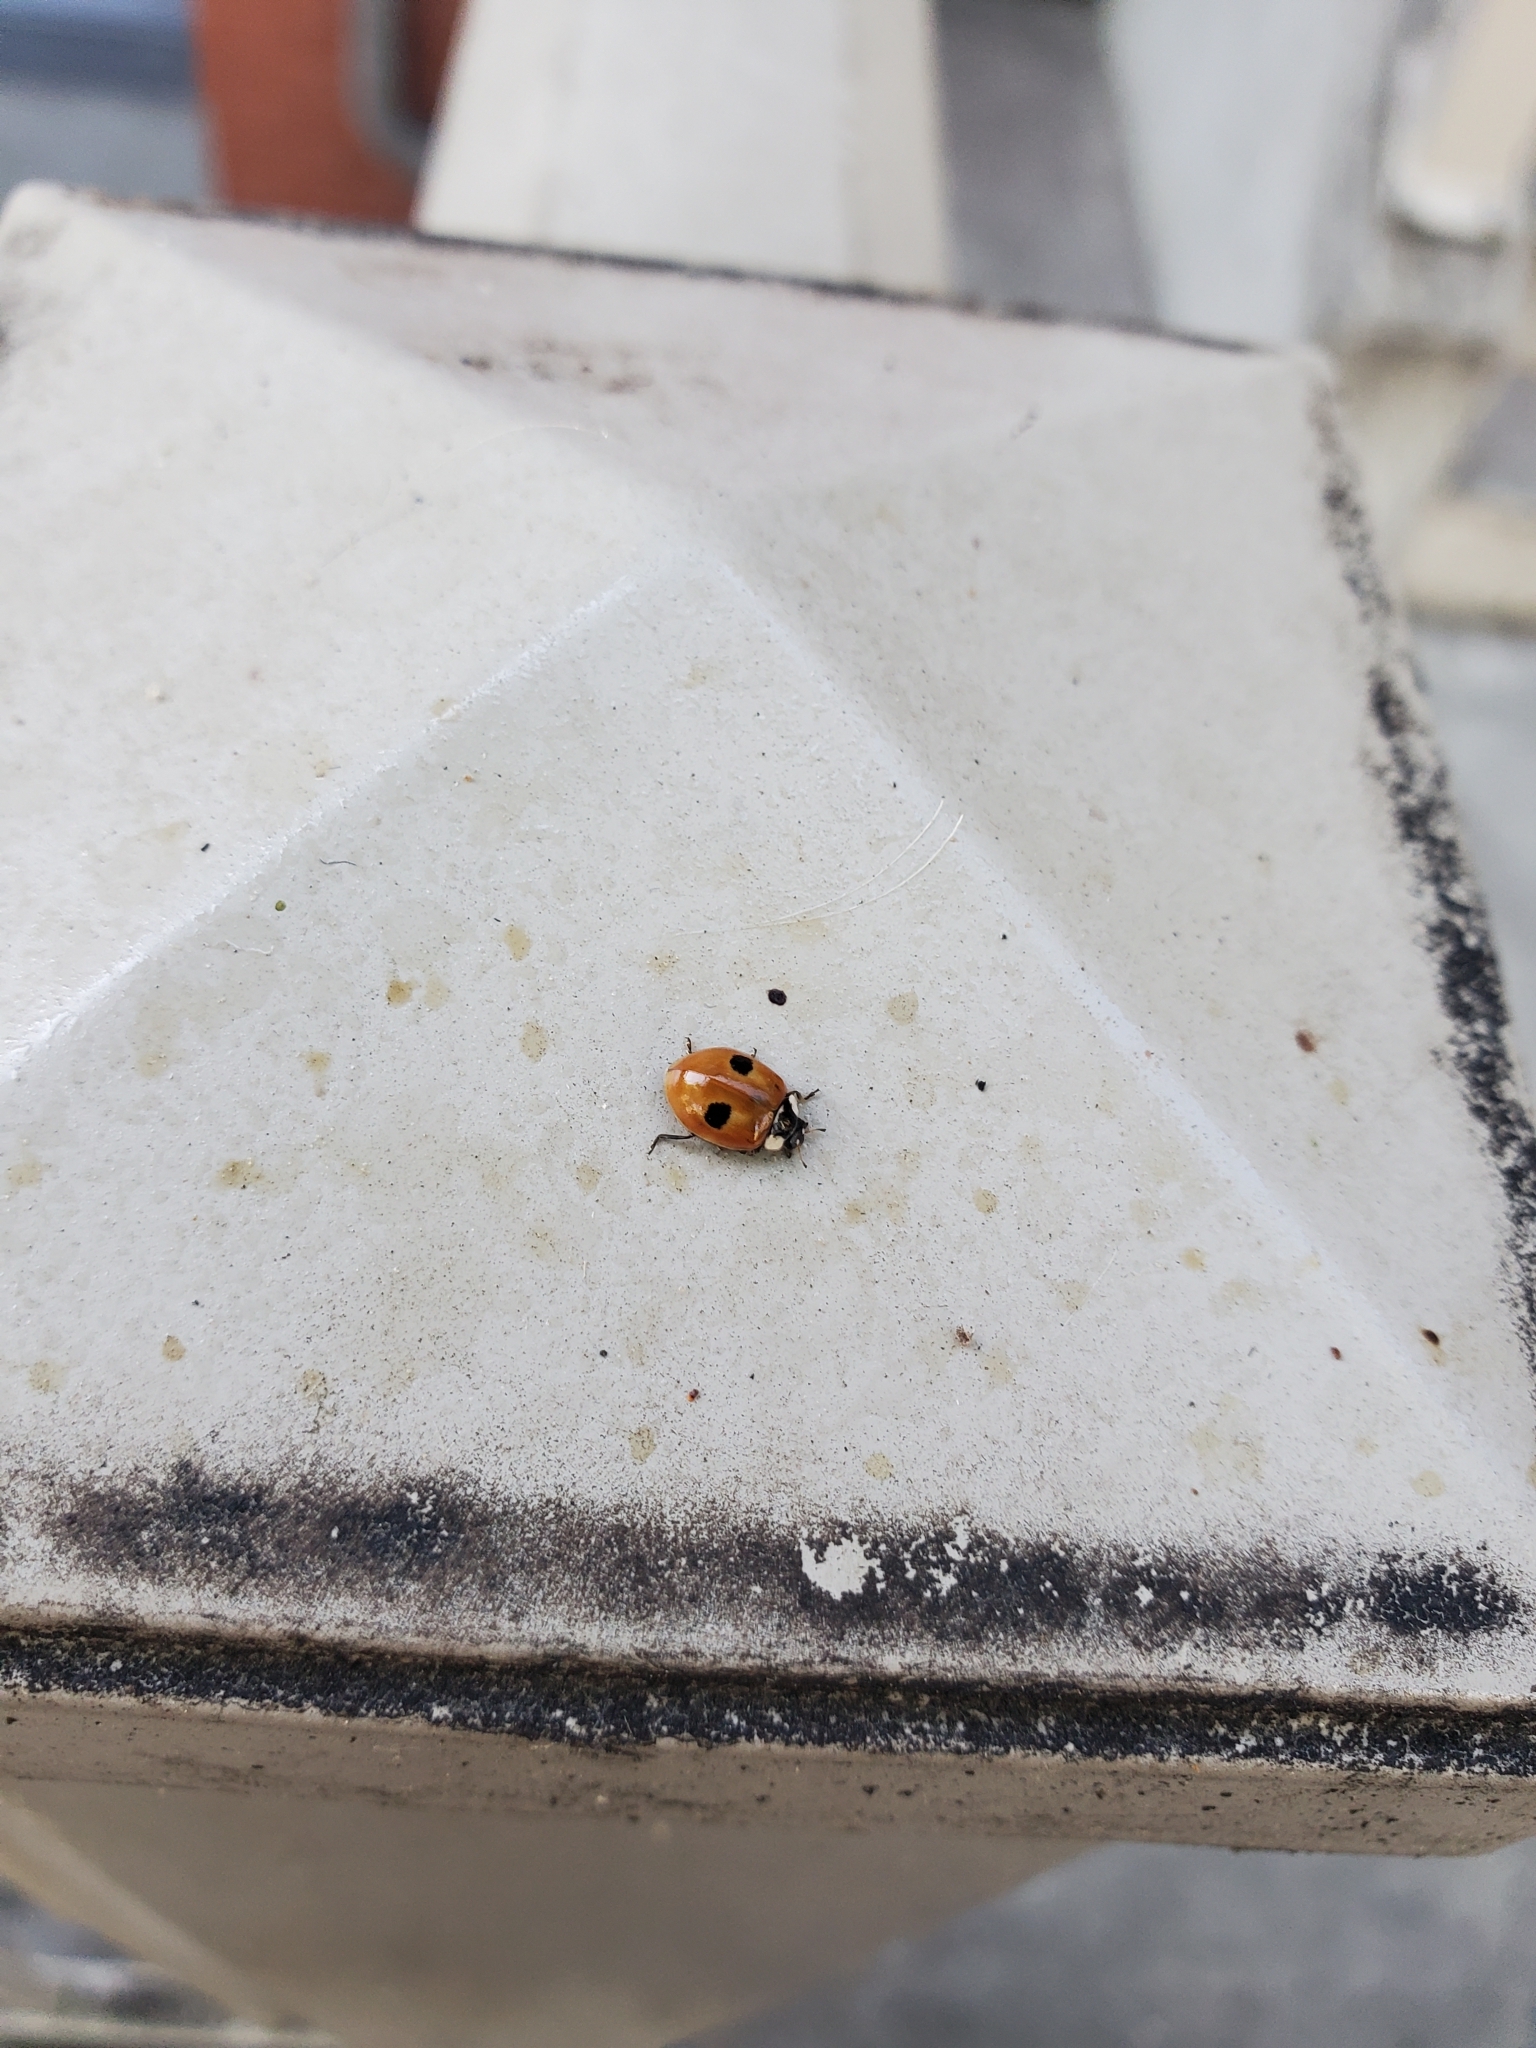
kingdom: Animalia
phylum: Arthropoda
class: Insecta
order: Coleoptera
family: Coccinellidae
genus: Adalia
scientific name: Adalia bipunctata
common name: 2-spot ladybird
